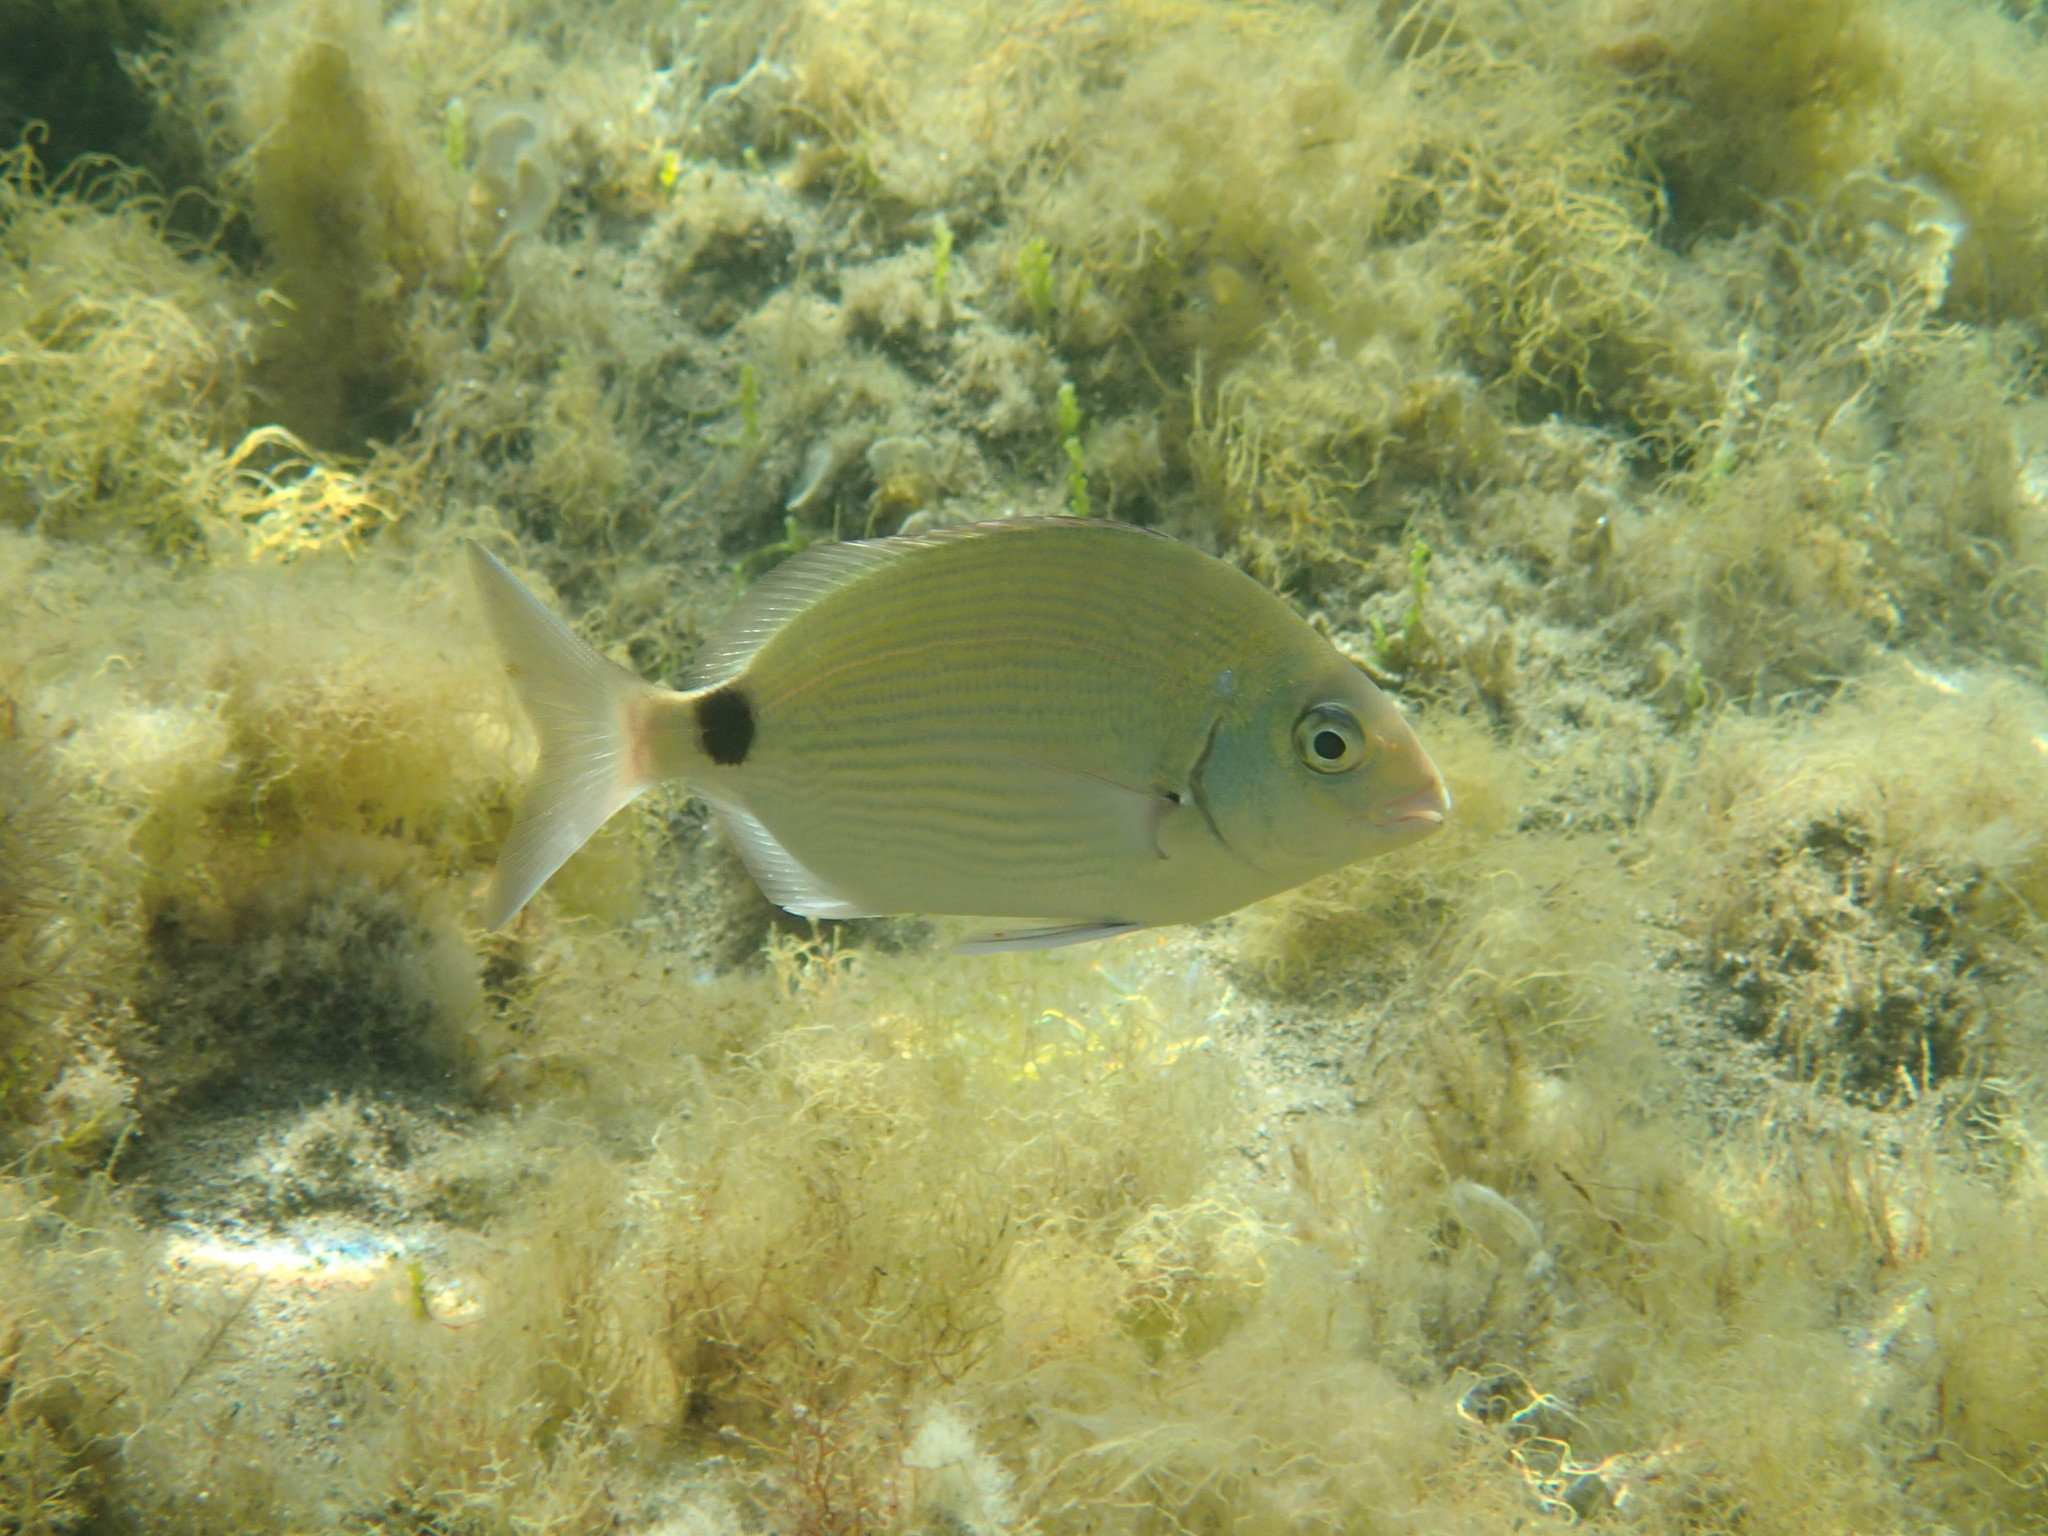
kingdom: Animalia
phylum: Chordata
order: Perciformes
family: Sparidae
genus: Diplodus
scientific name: Diplodus sargus
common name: White seabream
